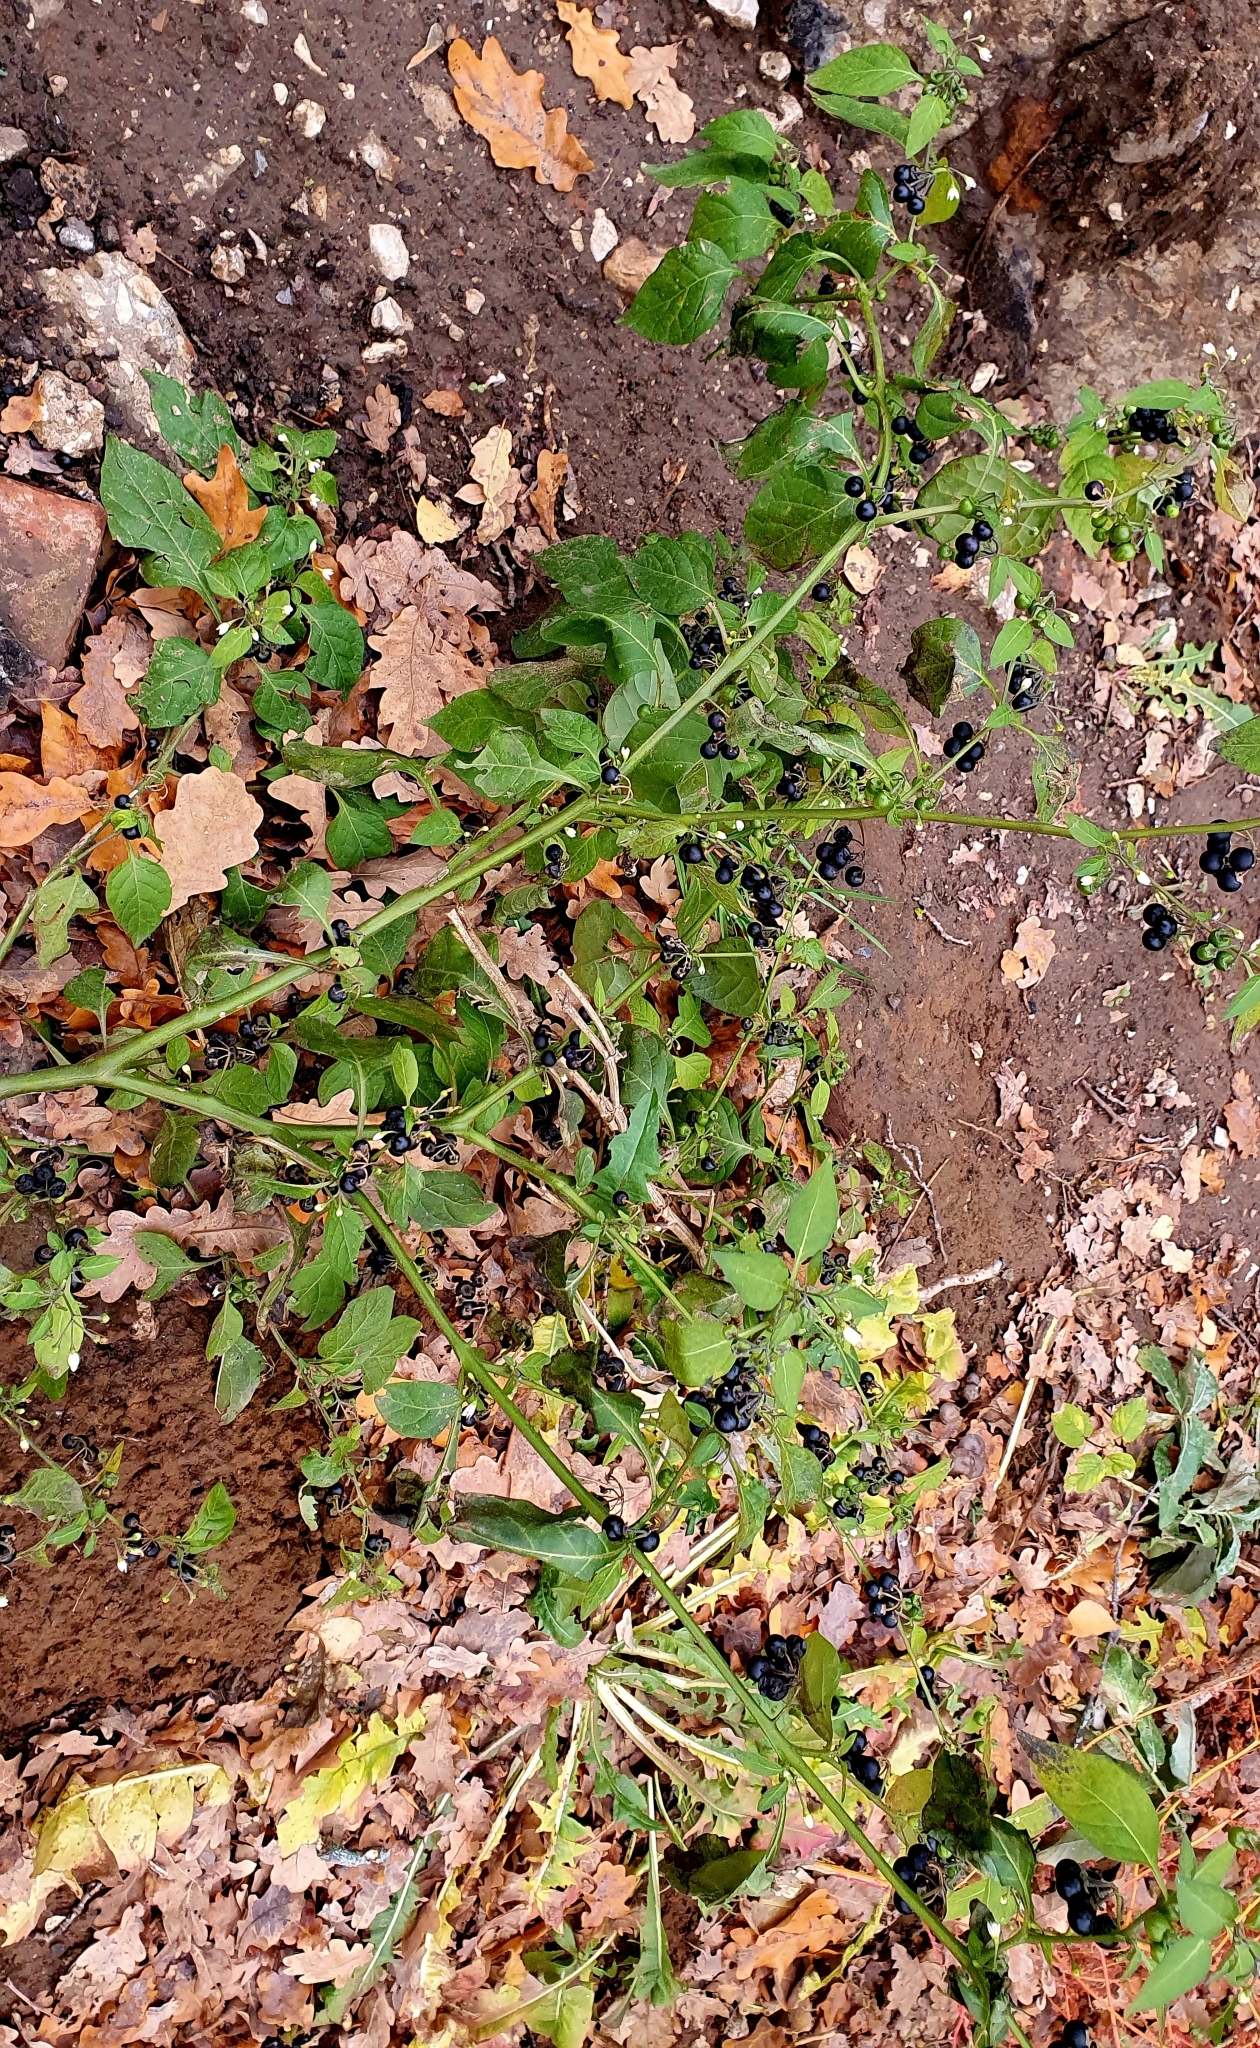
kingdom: Plantae
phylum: Tracheophyta
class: Magnoliopsida
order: Solanales
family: Solanaceae
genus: Solanum
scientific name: Solanum nigrum
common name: Black nightshade
